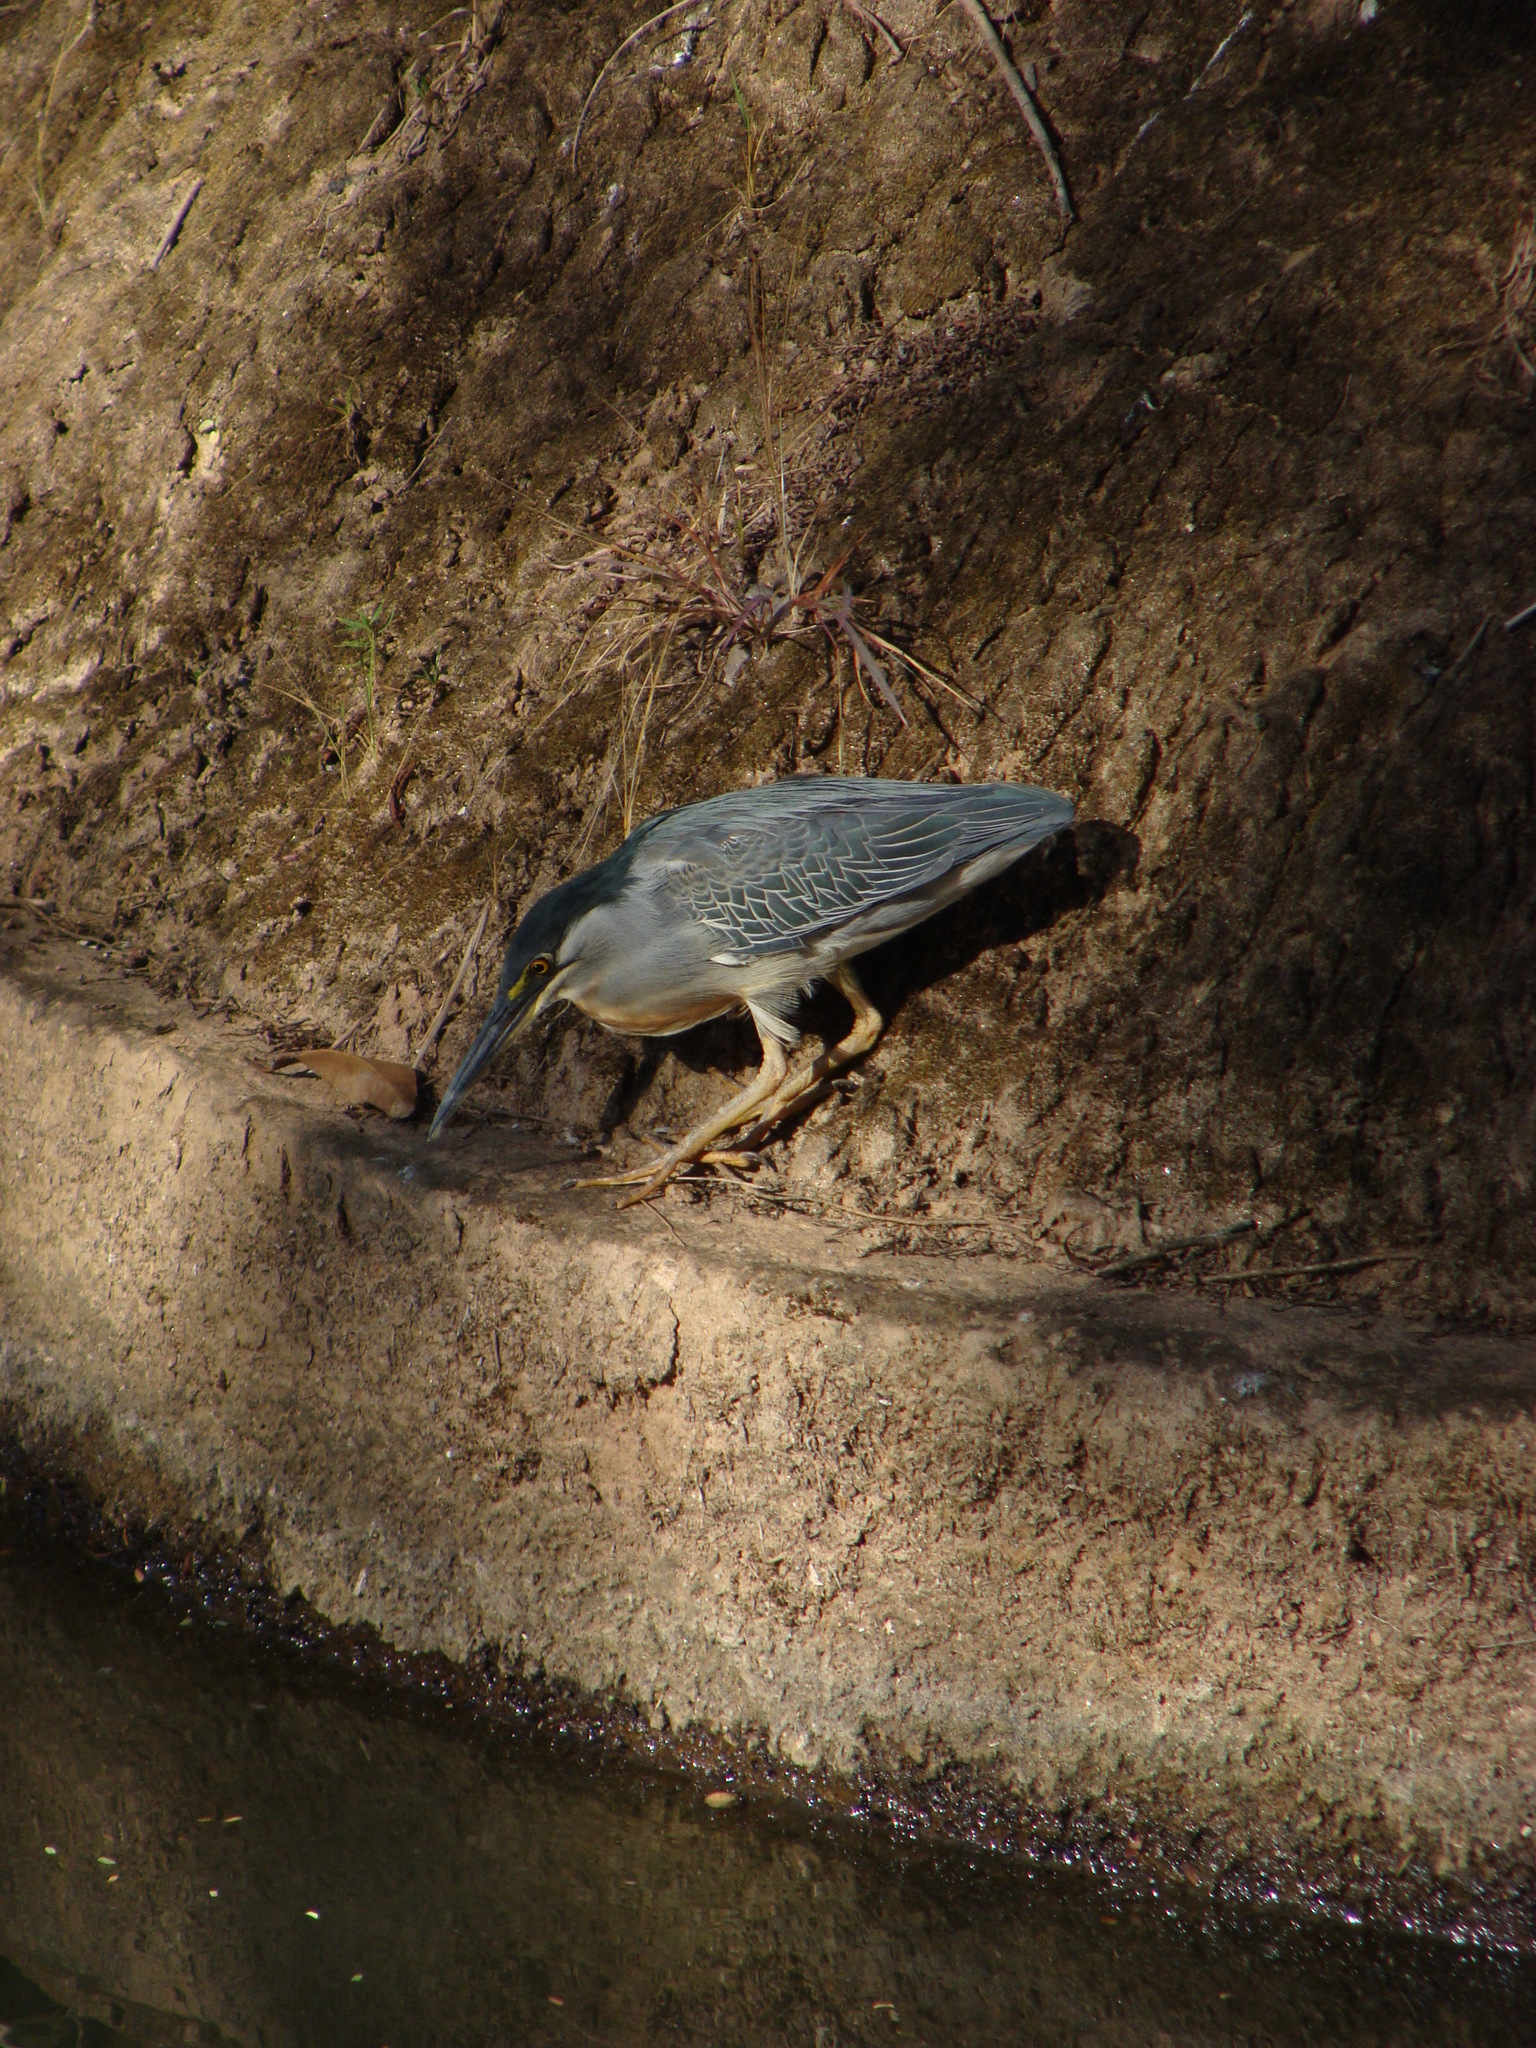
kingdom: Animalia
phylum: Chordata
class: Aves
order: Pelecaniformes
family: Ardeidae
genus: Butorides
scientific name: Butorides striata
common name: Striated heron
